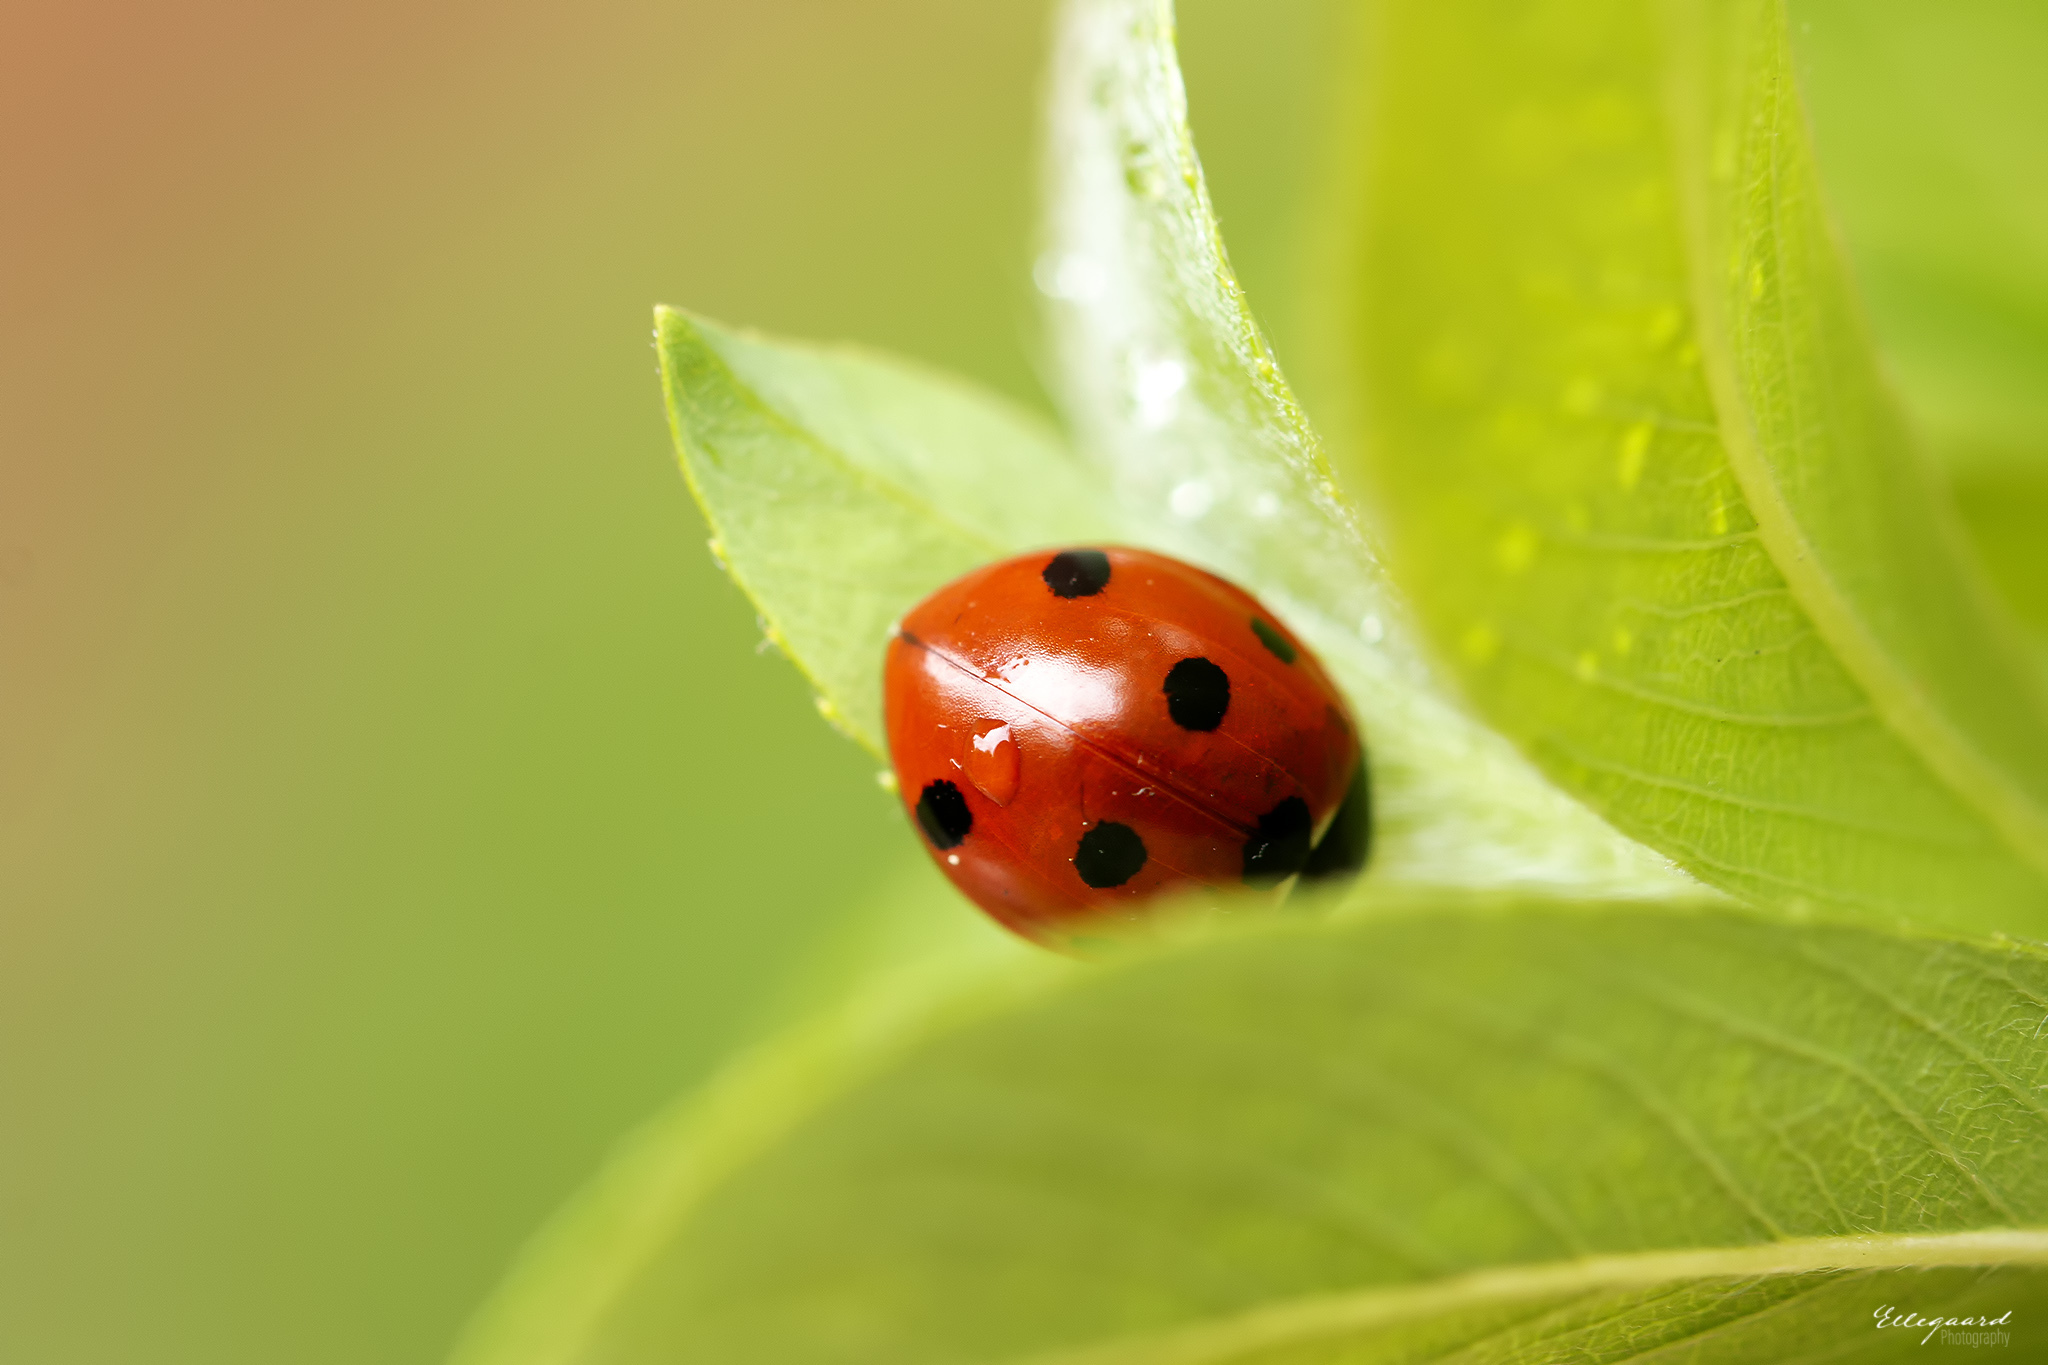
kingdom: Animalia
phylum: Arthropoda
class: Insecta
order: Coleoptera
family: Coccinellidae
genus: Coccinella
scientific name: Coccinella septempunctata
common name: Sevenspotted lady beetle
